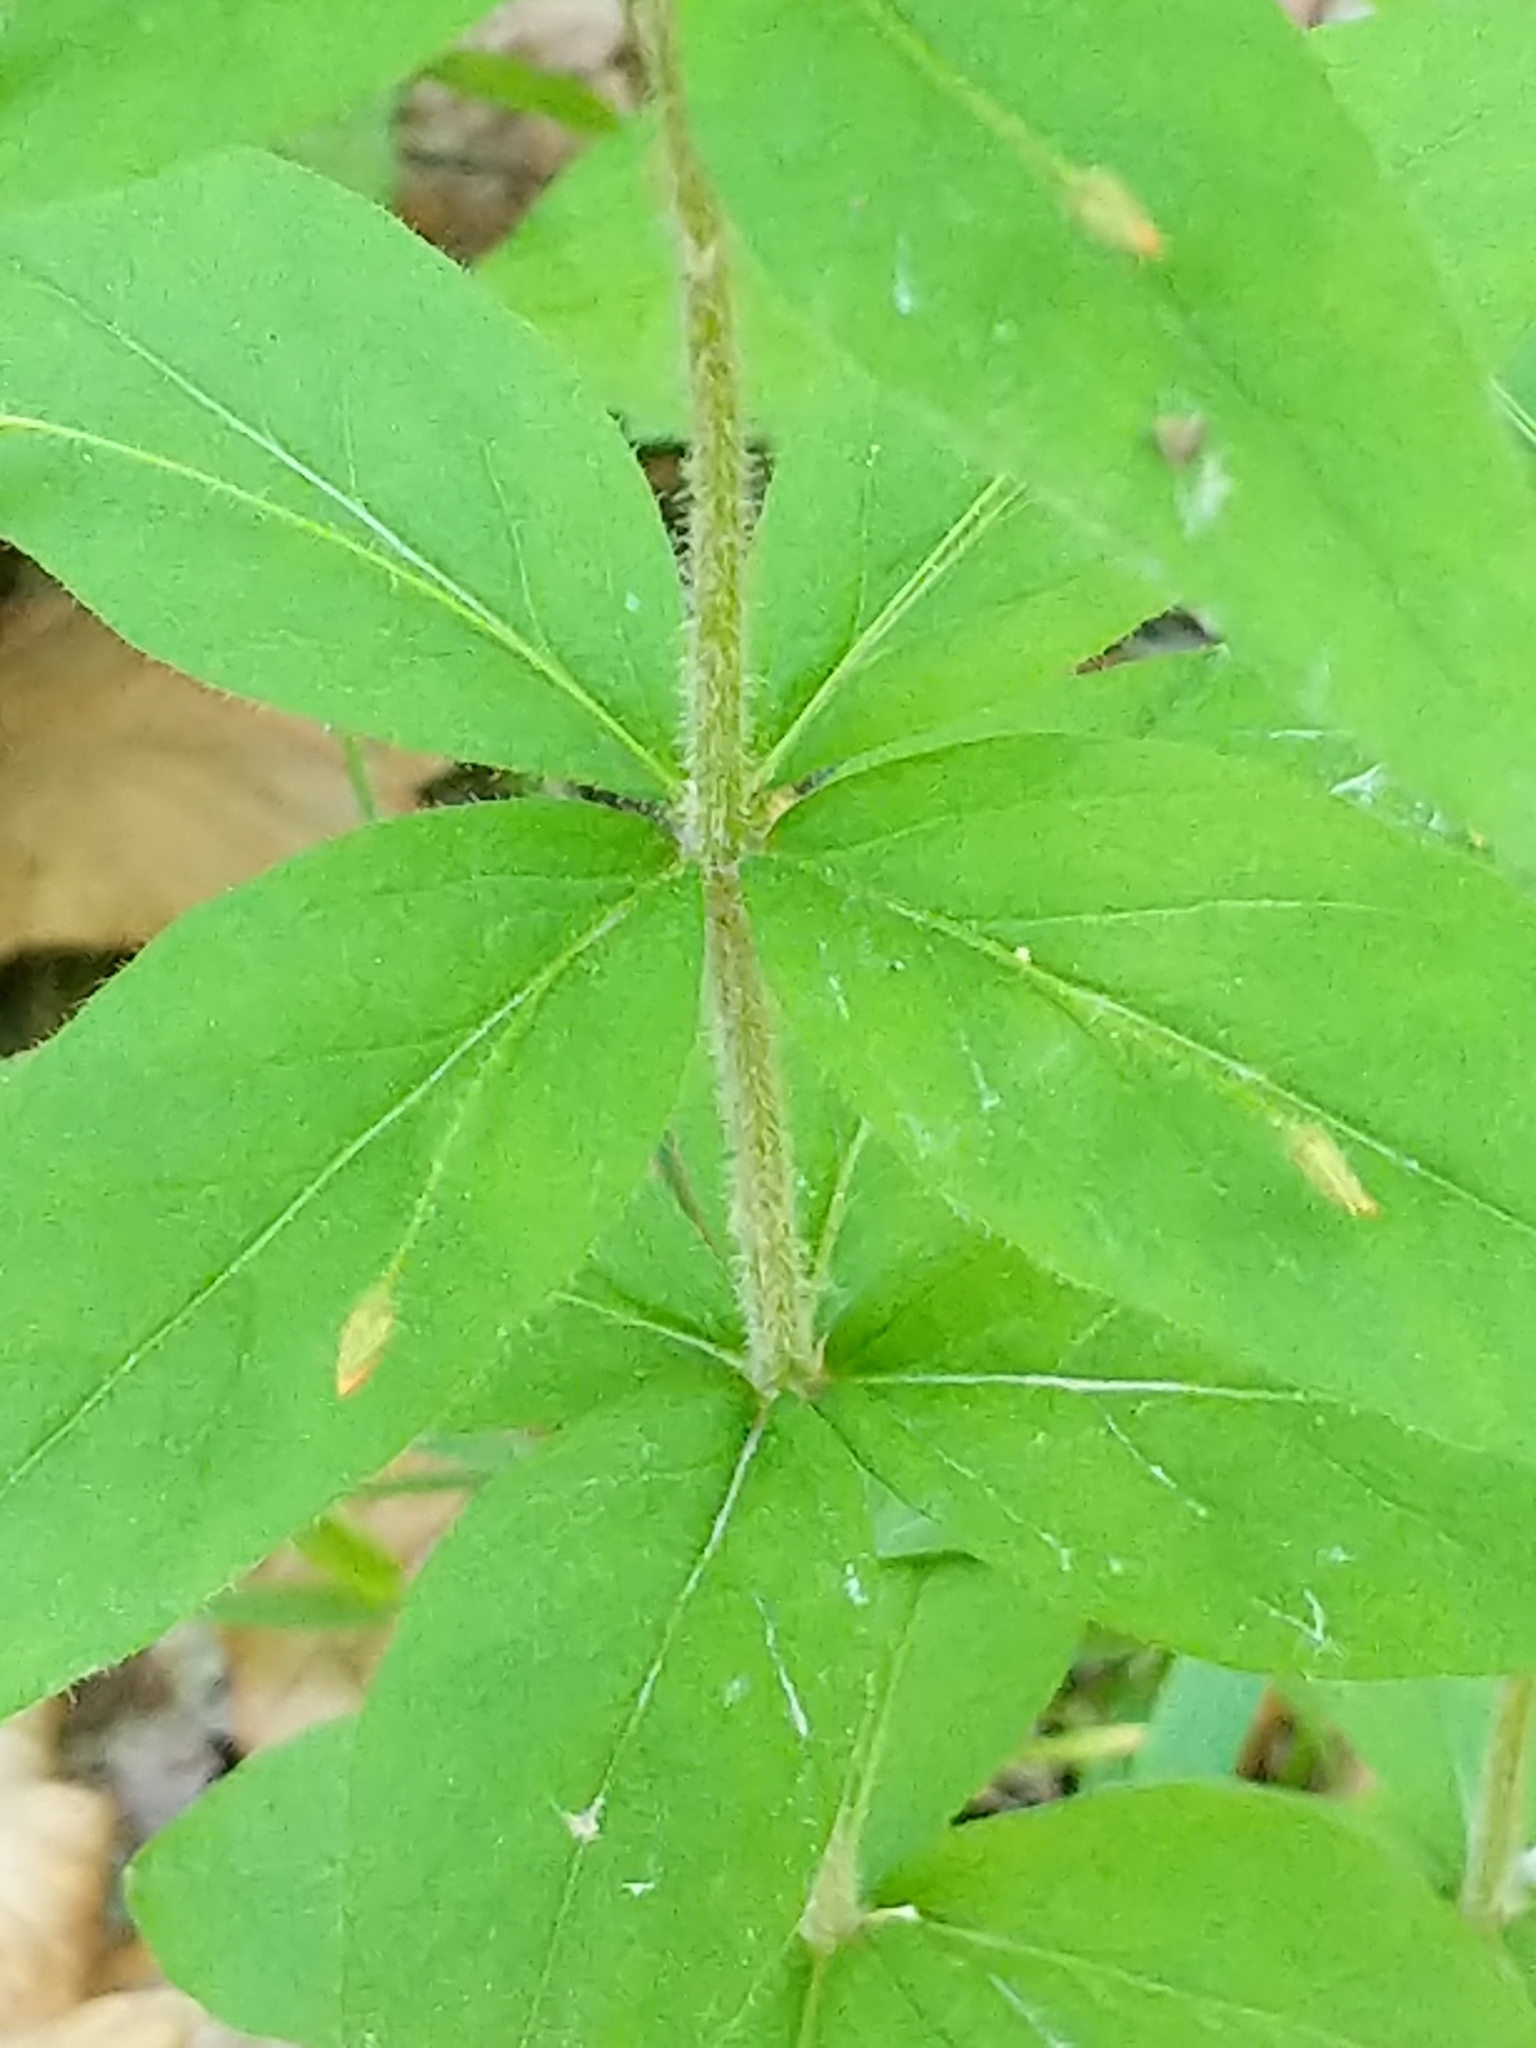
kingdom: Plantae
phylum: Tracheophyta
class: Magnoliopsida
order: Ericales
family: Primulaceae
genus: Lysimachia
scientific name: Lysimachia quadrifolia
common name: Whorled loosestrife
